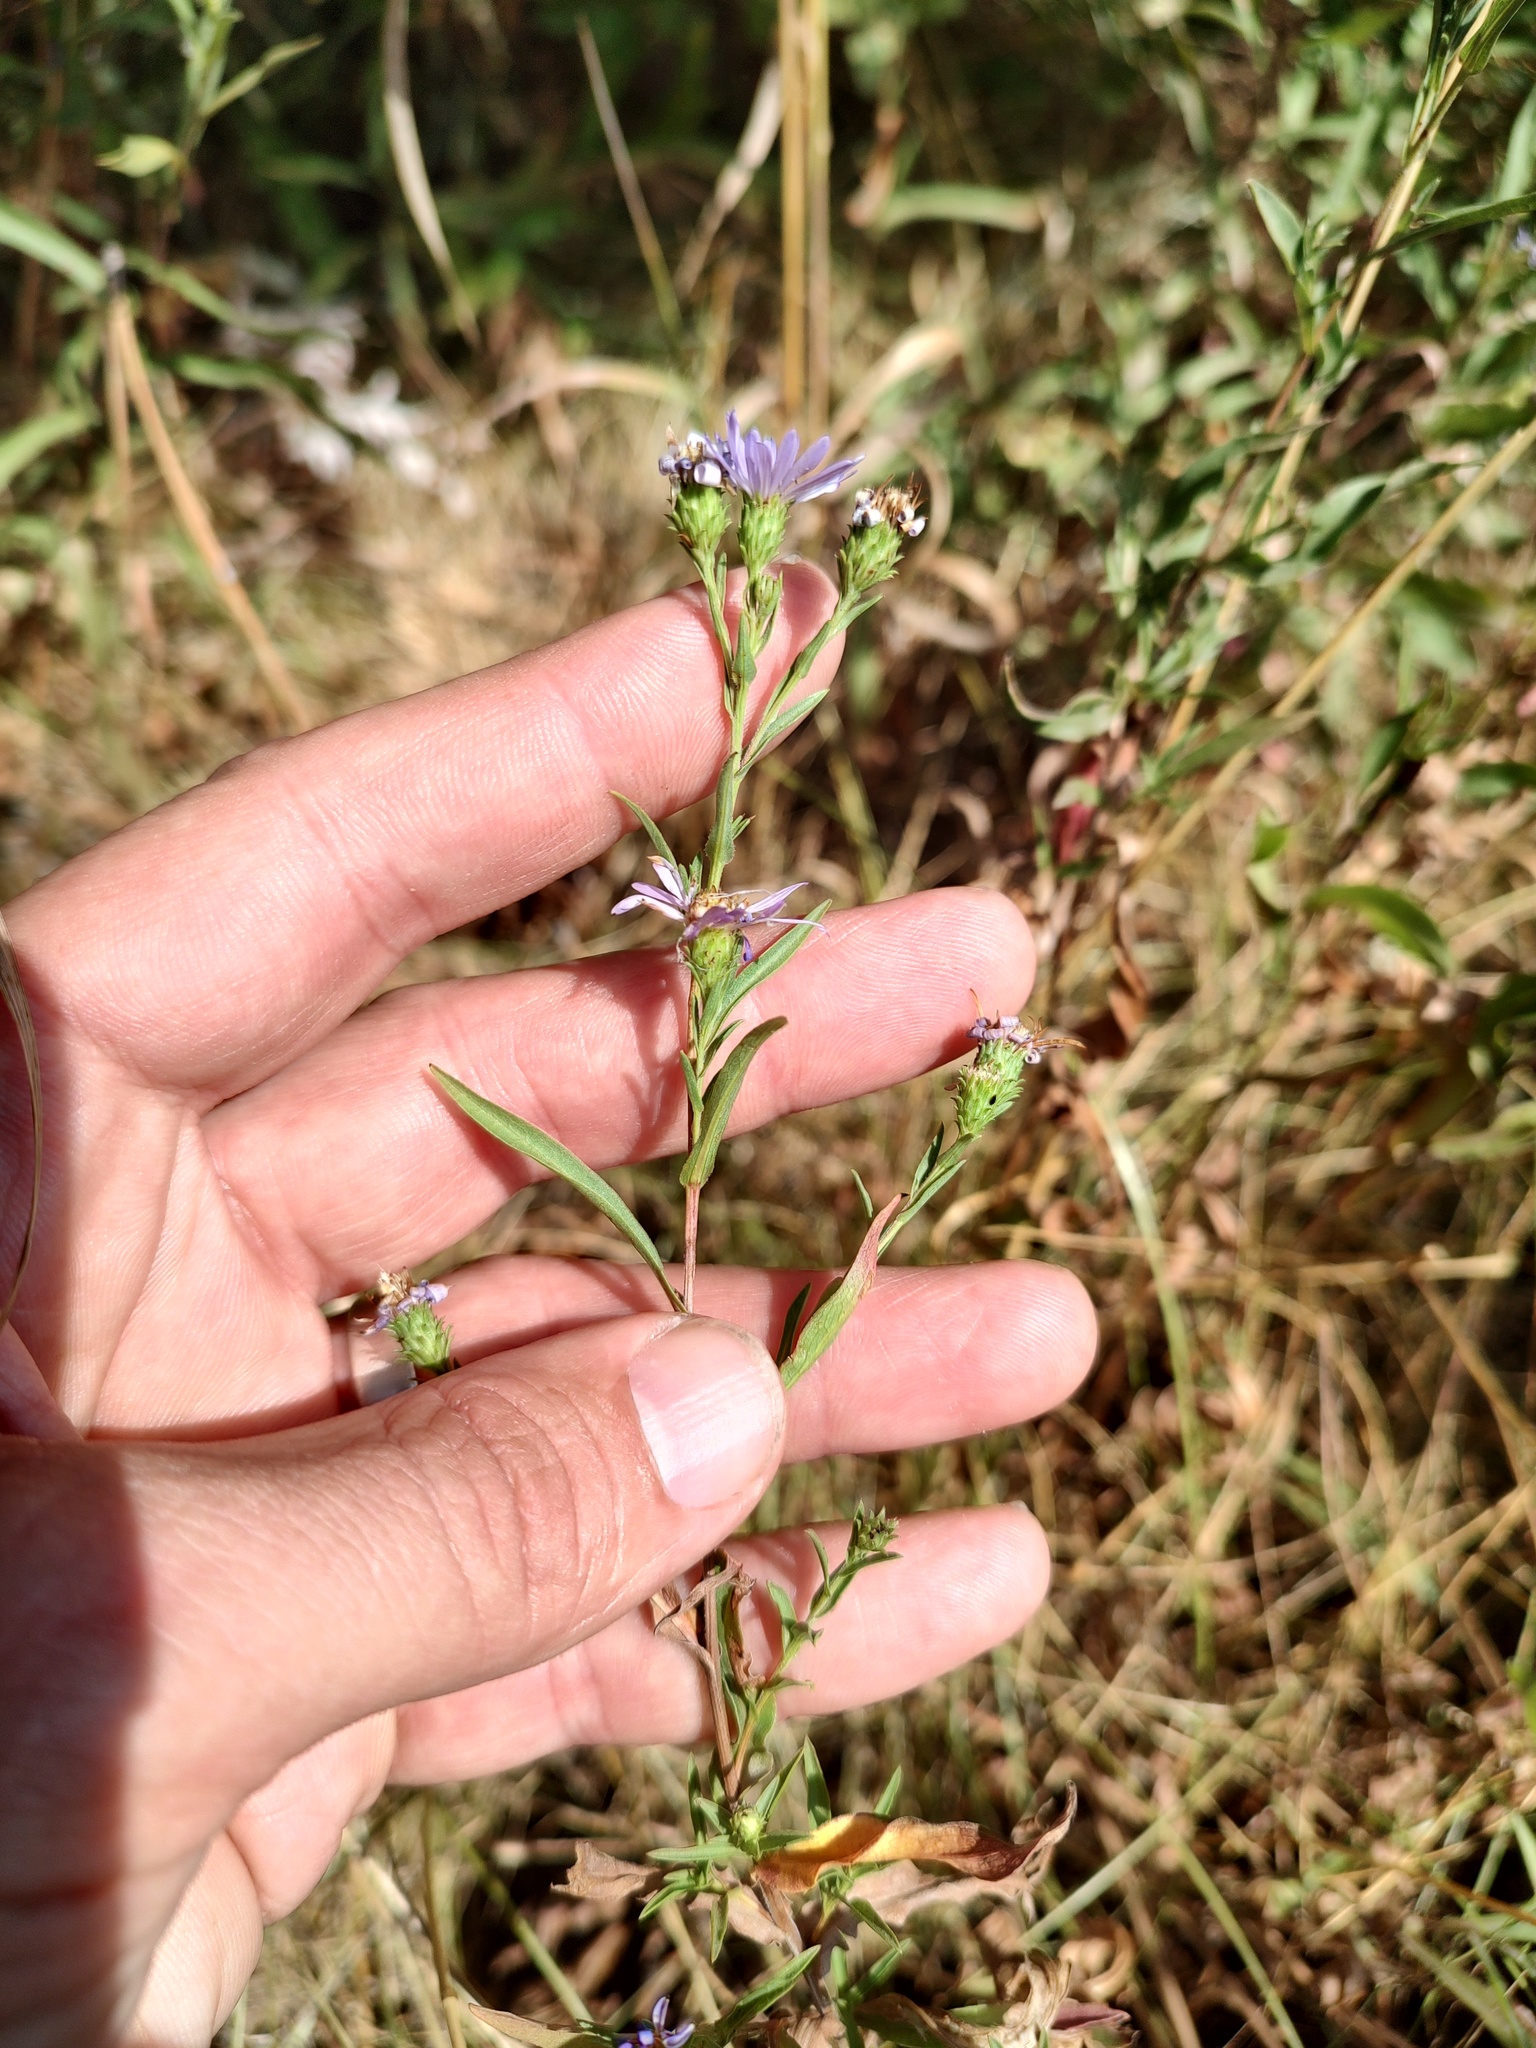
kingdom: Plantae
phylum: Tracheophyta
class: Magnoliopsida
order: Asterales
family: Asteraceae
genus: Symphyotrichum
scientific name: Symphyotrichum spathulatum
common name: Western mountain aster
